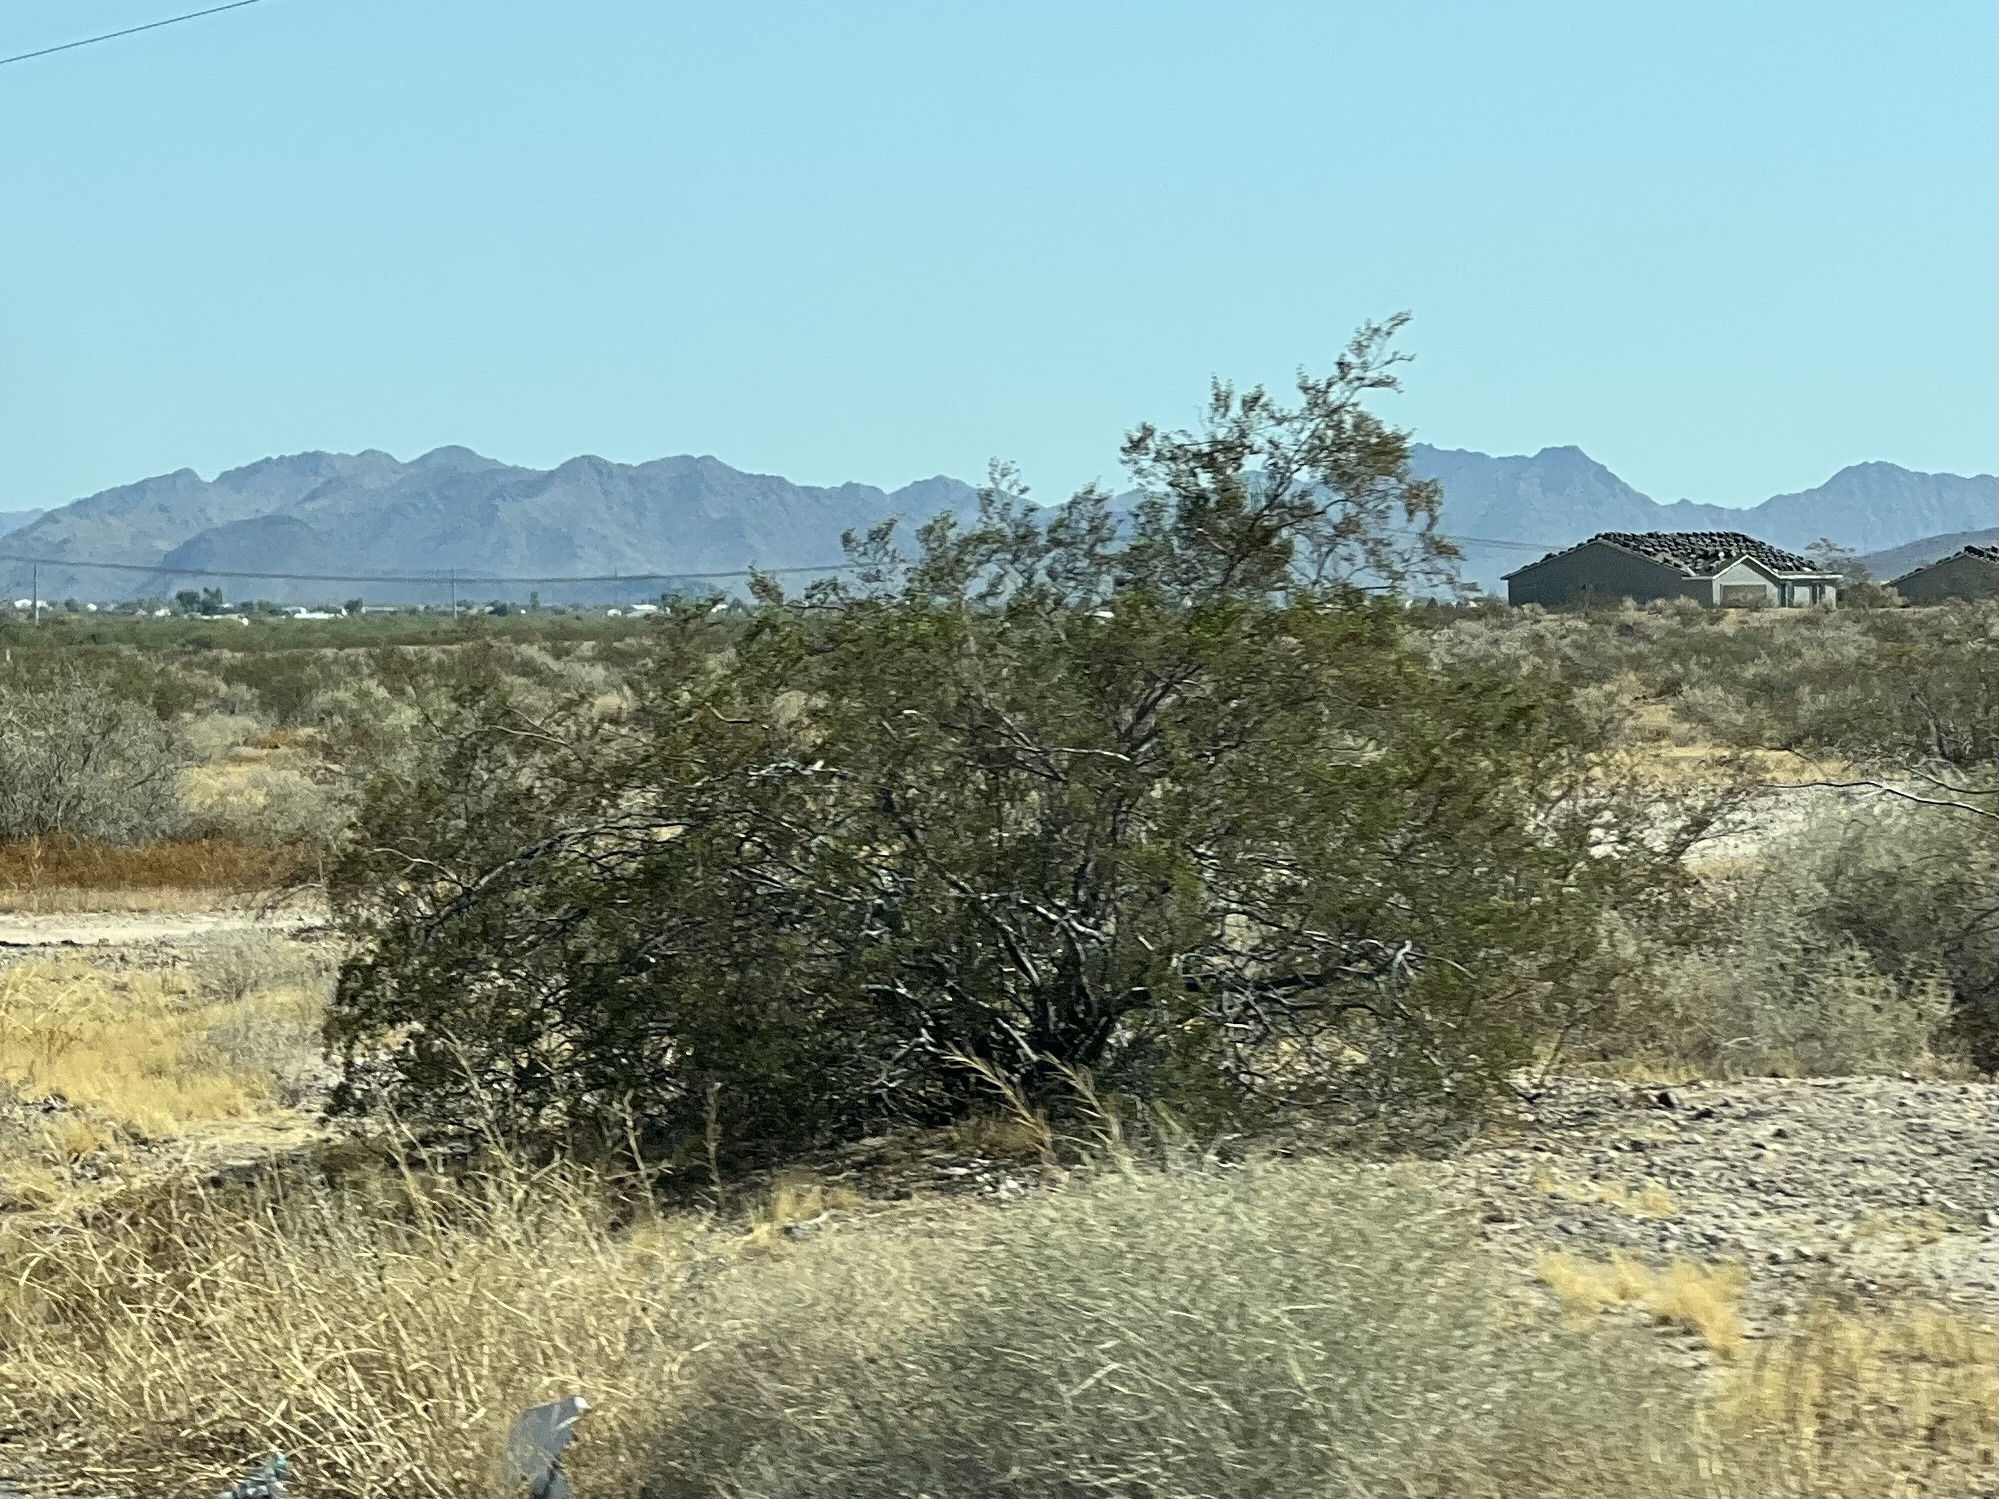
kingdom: Plantae
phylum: Tracheophyta
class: Magnoliopsida
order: Zygophyllales
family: Zygophyllaceae
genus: Larrea
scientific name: Larrea tridentata
